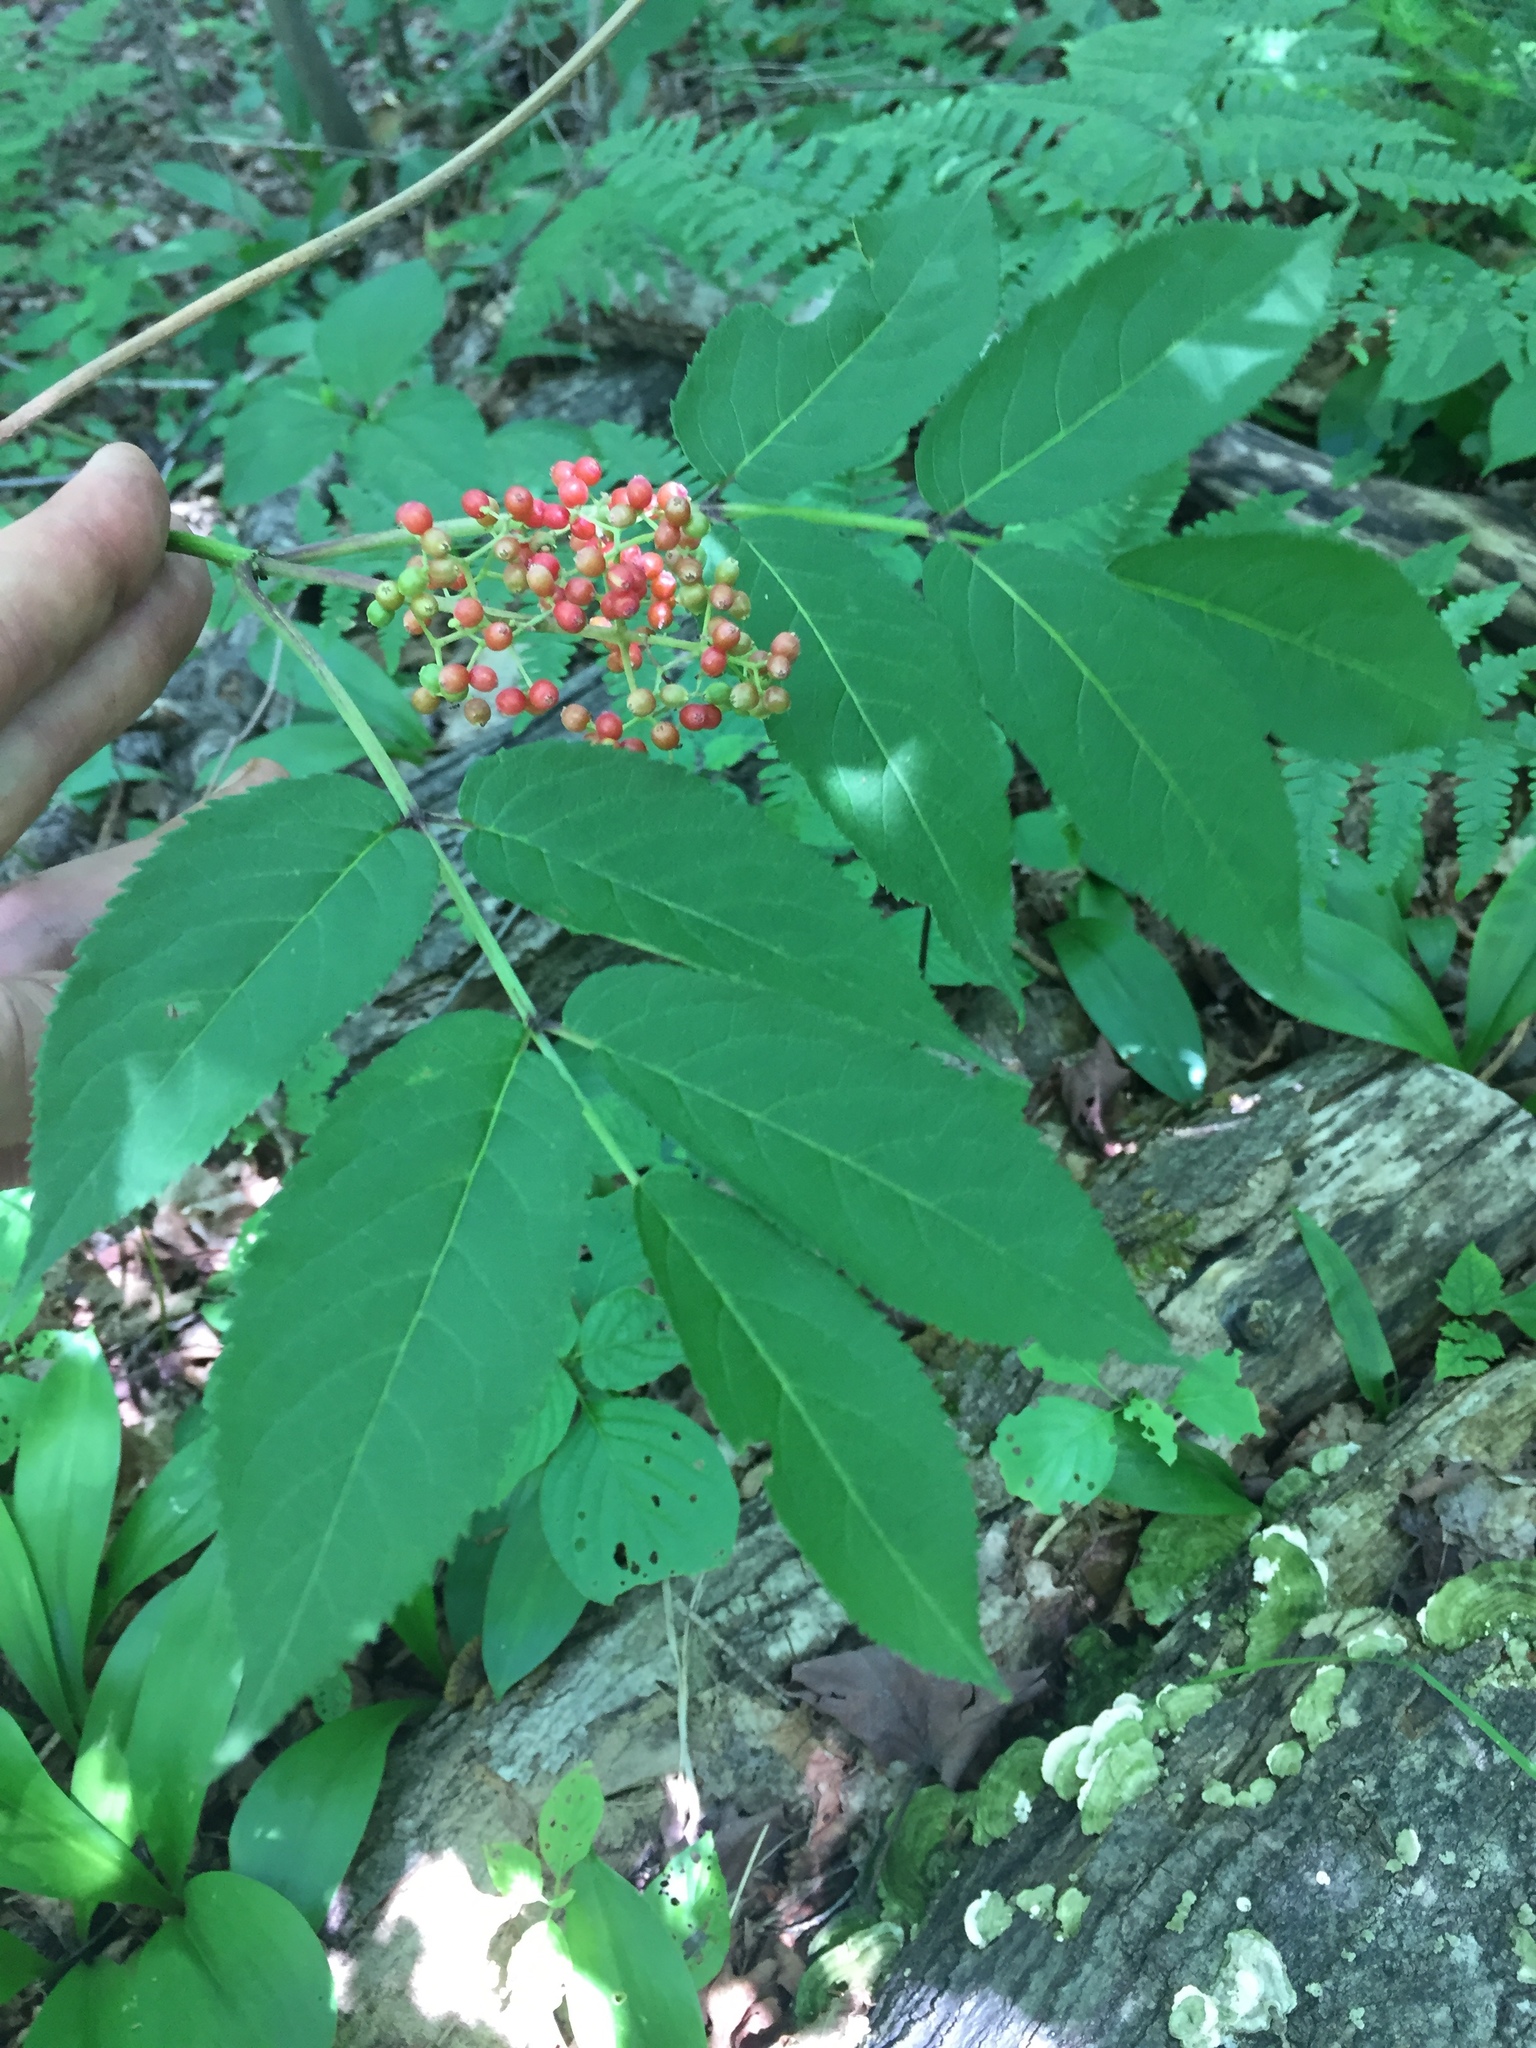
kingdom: Plantae
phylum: Tracheophyta
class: Magnoliopsida
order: Dipsacales
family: Viburnaceae
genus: Sambucus
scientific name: Sambucus racemosa
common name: Red-berried elder
